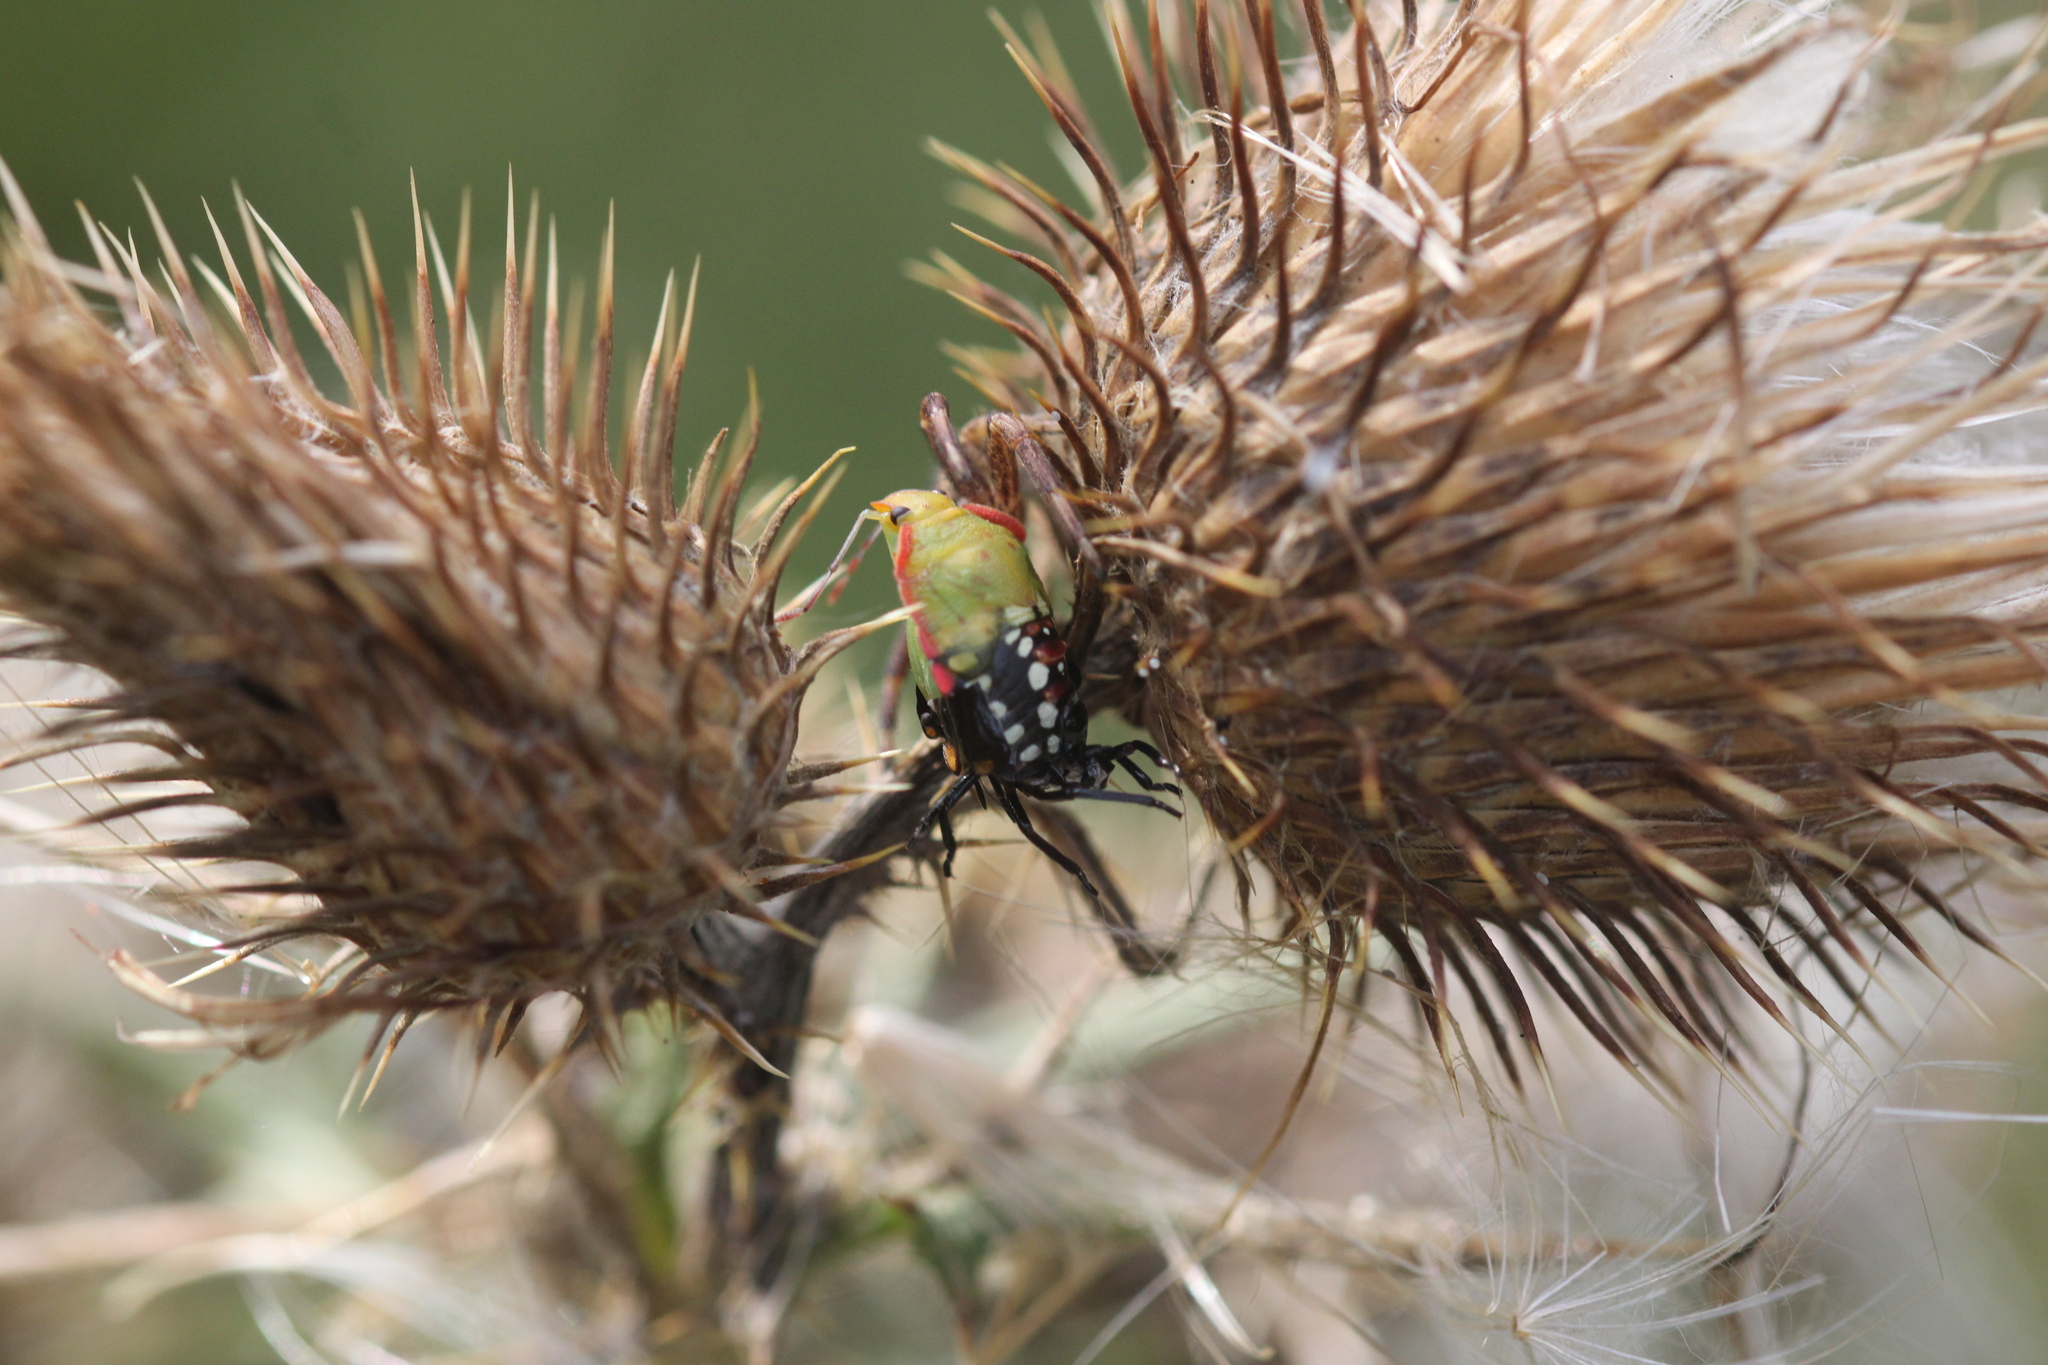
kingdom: Animalia
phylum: Arthropoda
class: Insecta
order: Hemiptera
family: Pentatomidae
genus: Nezara
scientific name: Nezara viridula
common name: Southern green stink bug
